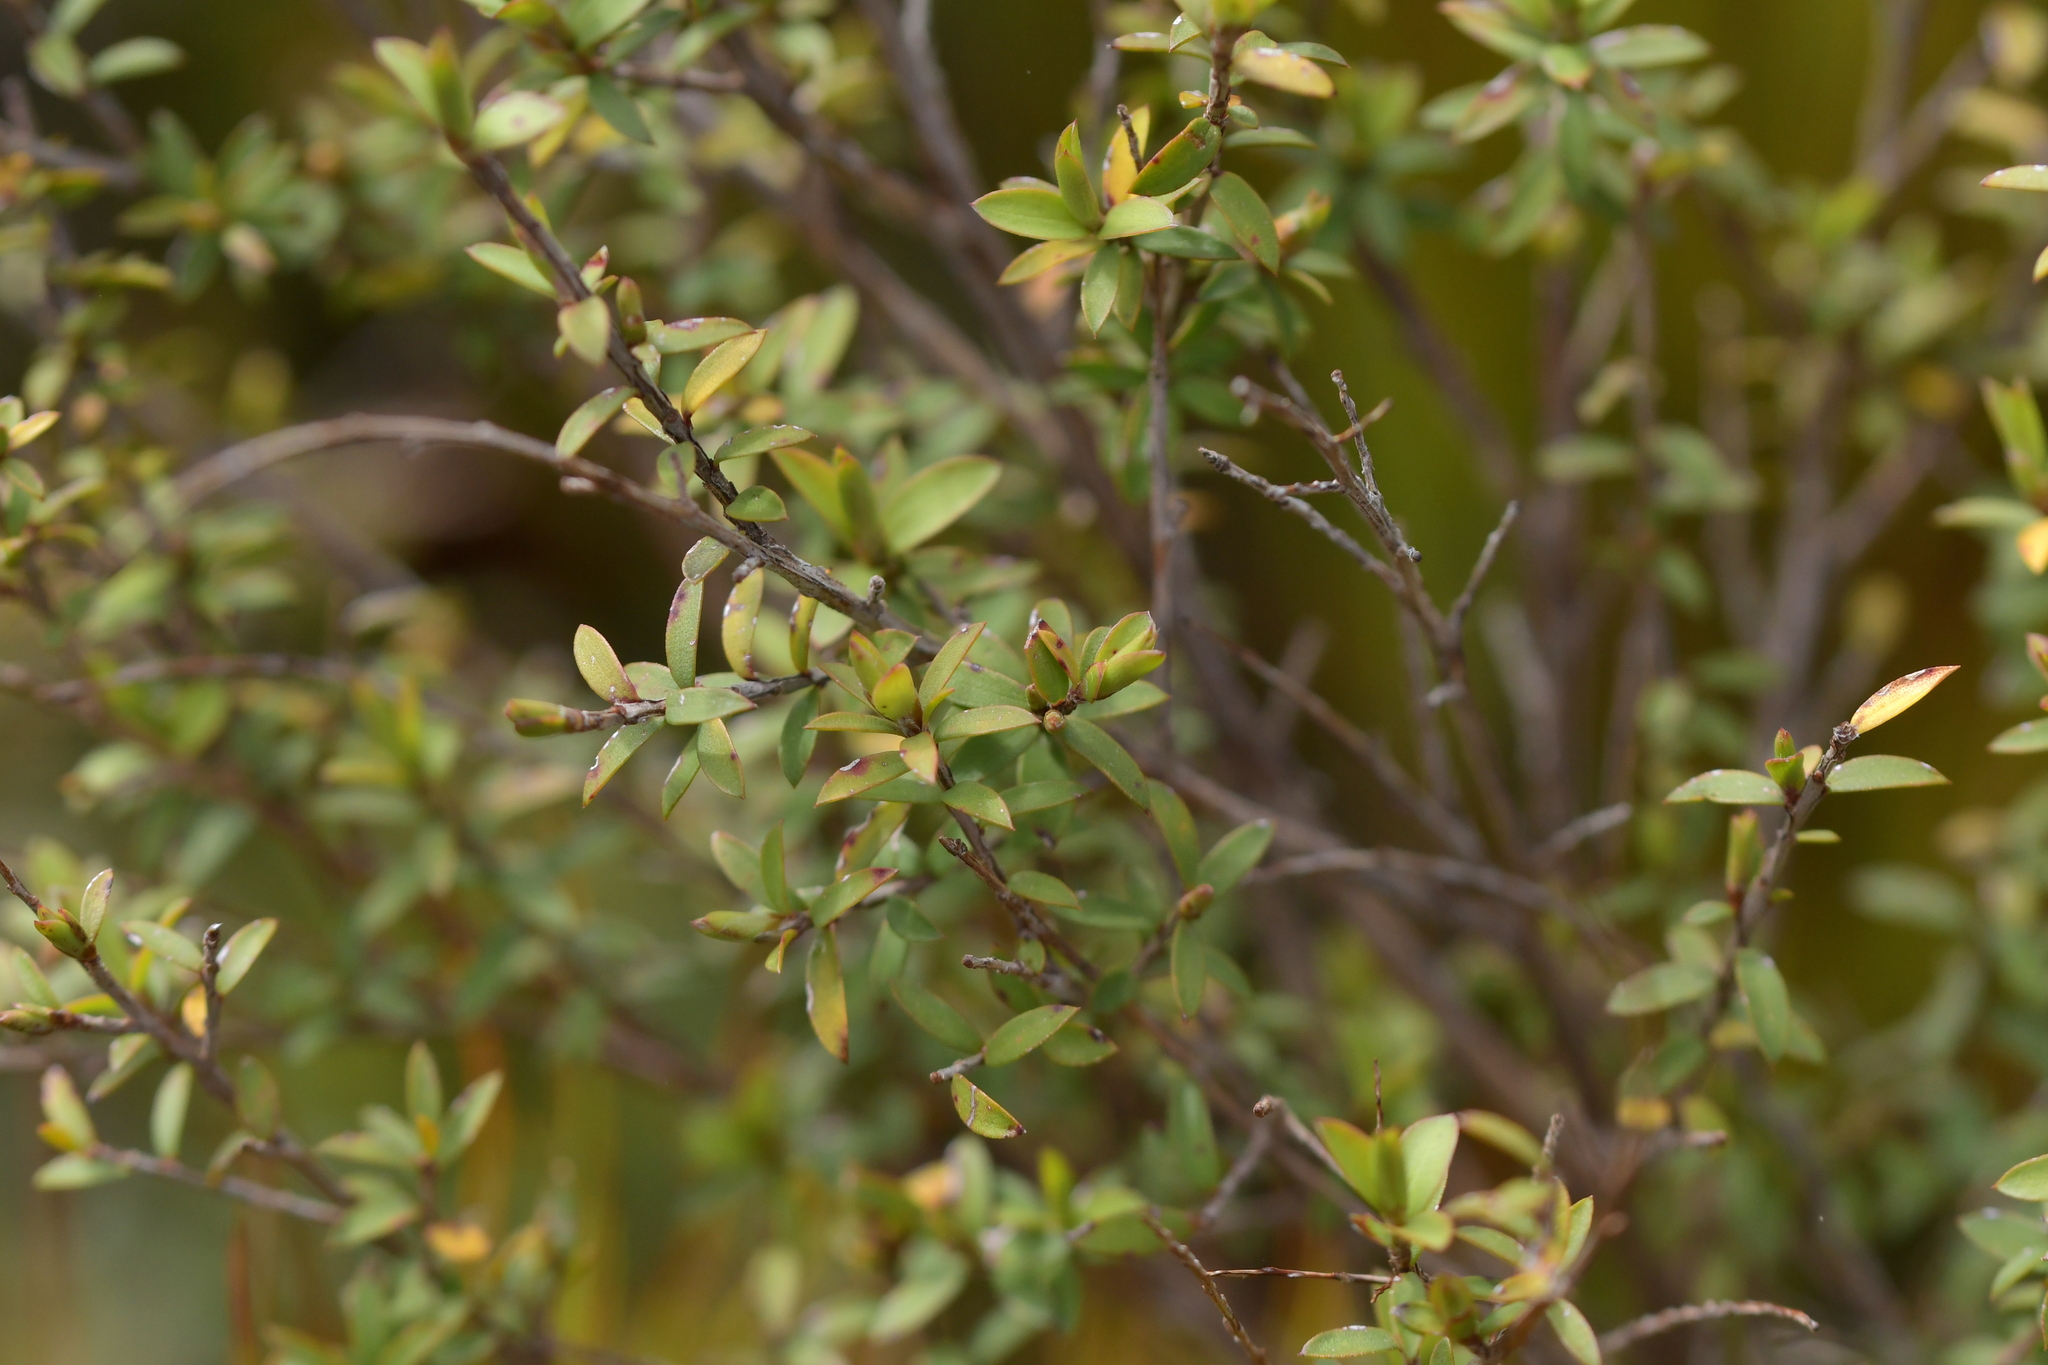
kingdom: Plantae
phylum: Tracheophyta
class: Magnoliopsida
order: Ericales
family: Ericaceae
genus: Leucopogon
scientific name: Leucopogon fasciculatus
